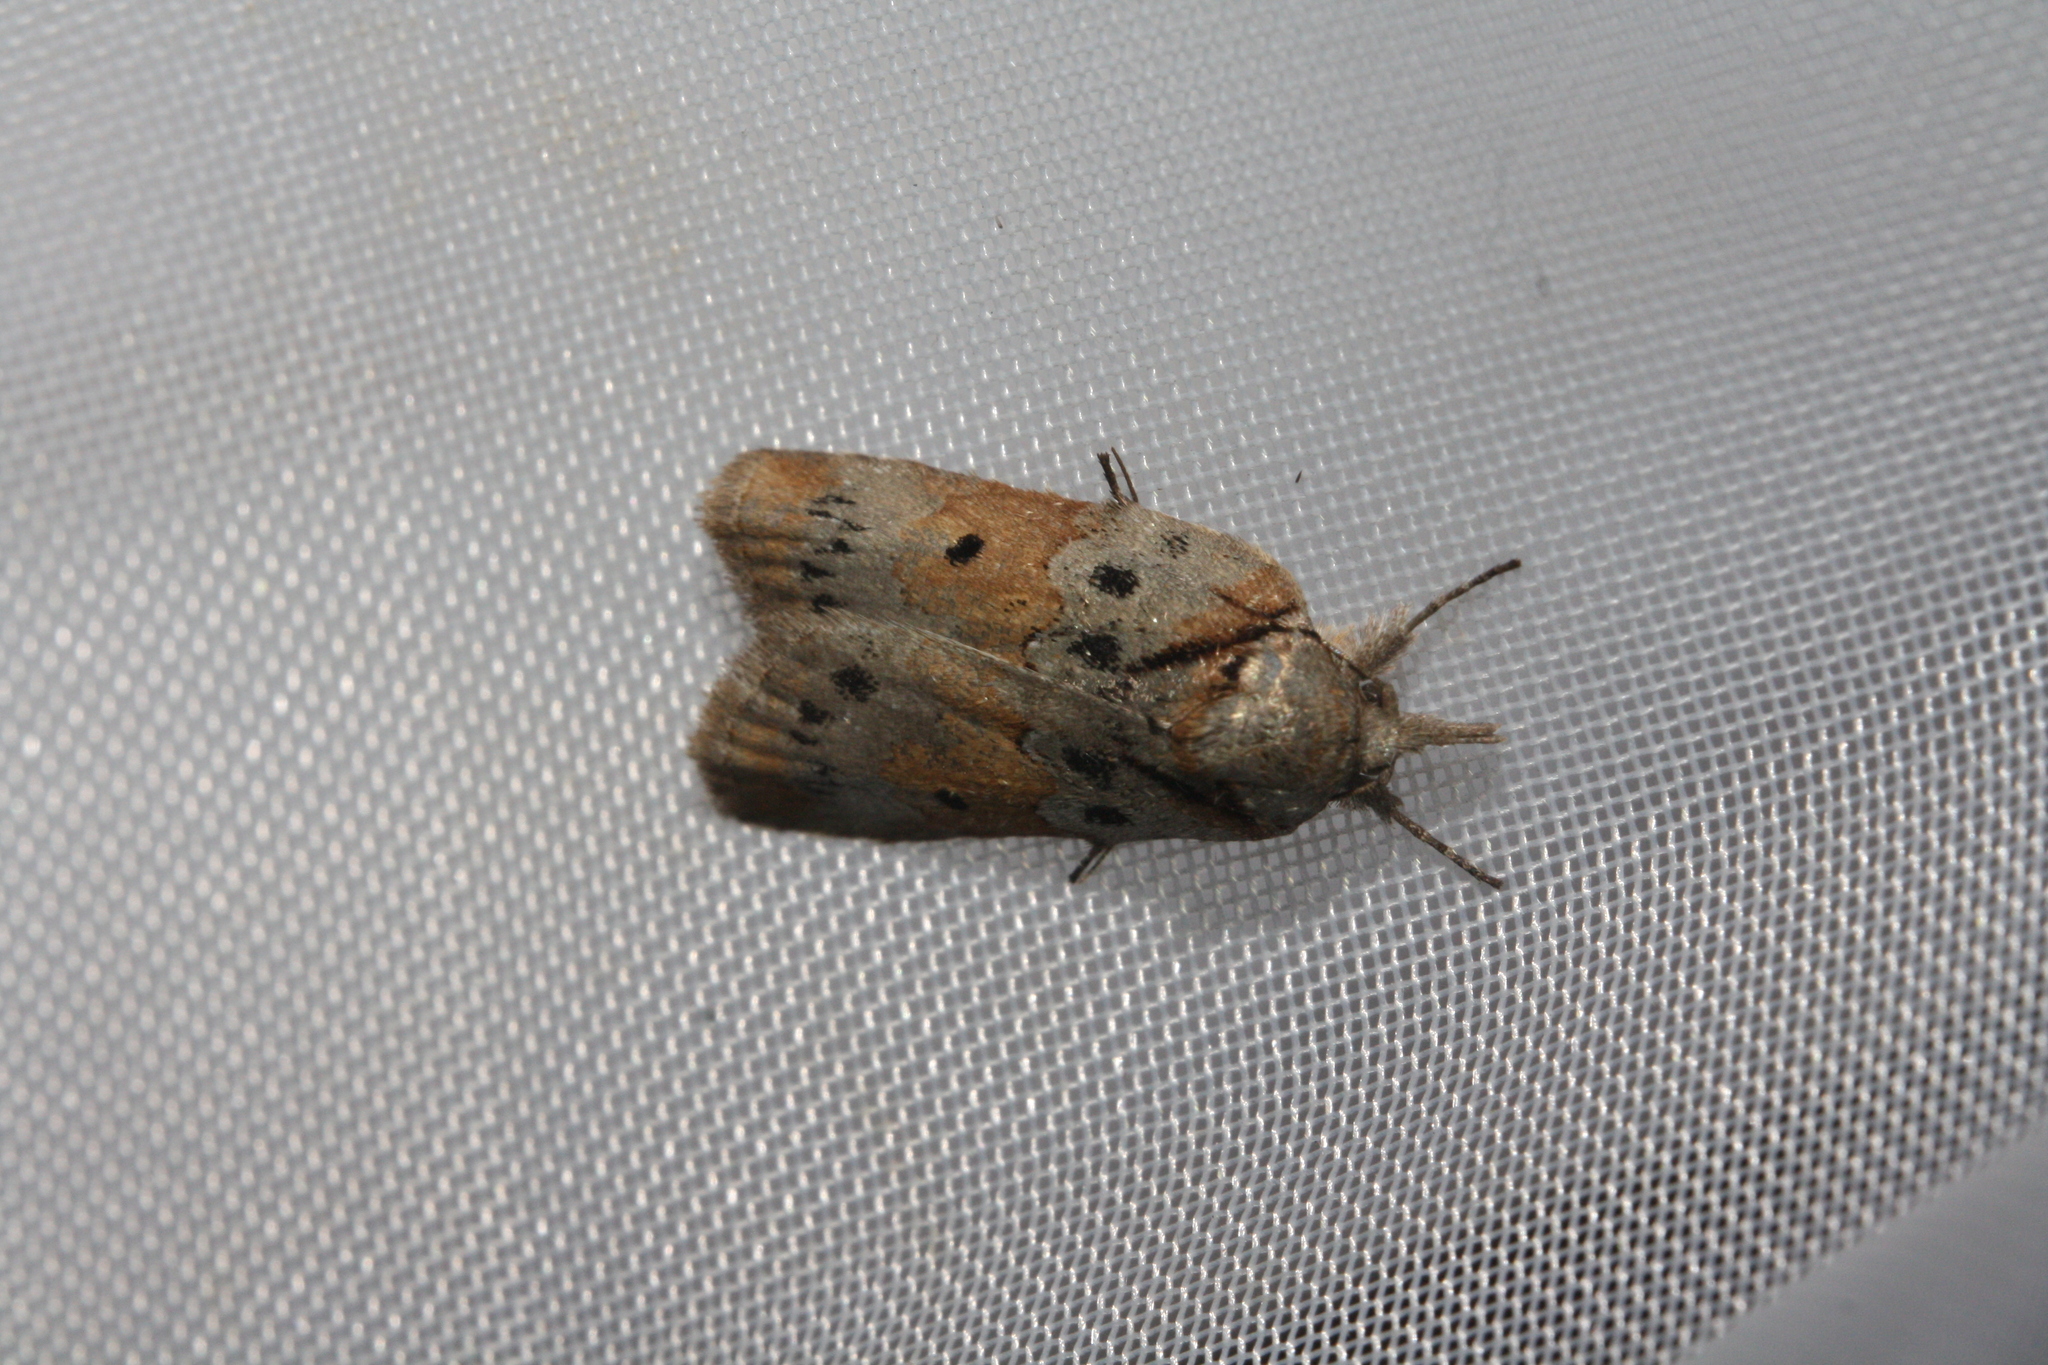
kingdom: Animalia
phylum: Arthropoda
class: Insecta
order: Lepidoptera
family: Nolidae
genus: Nycteola
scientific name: Nycteola revayana
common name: Oak nycteoline
